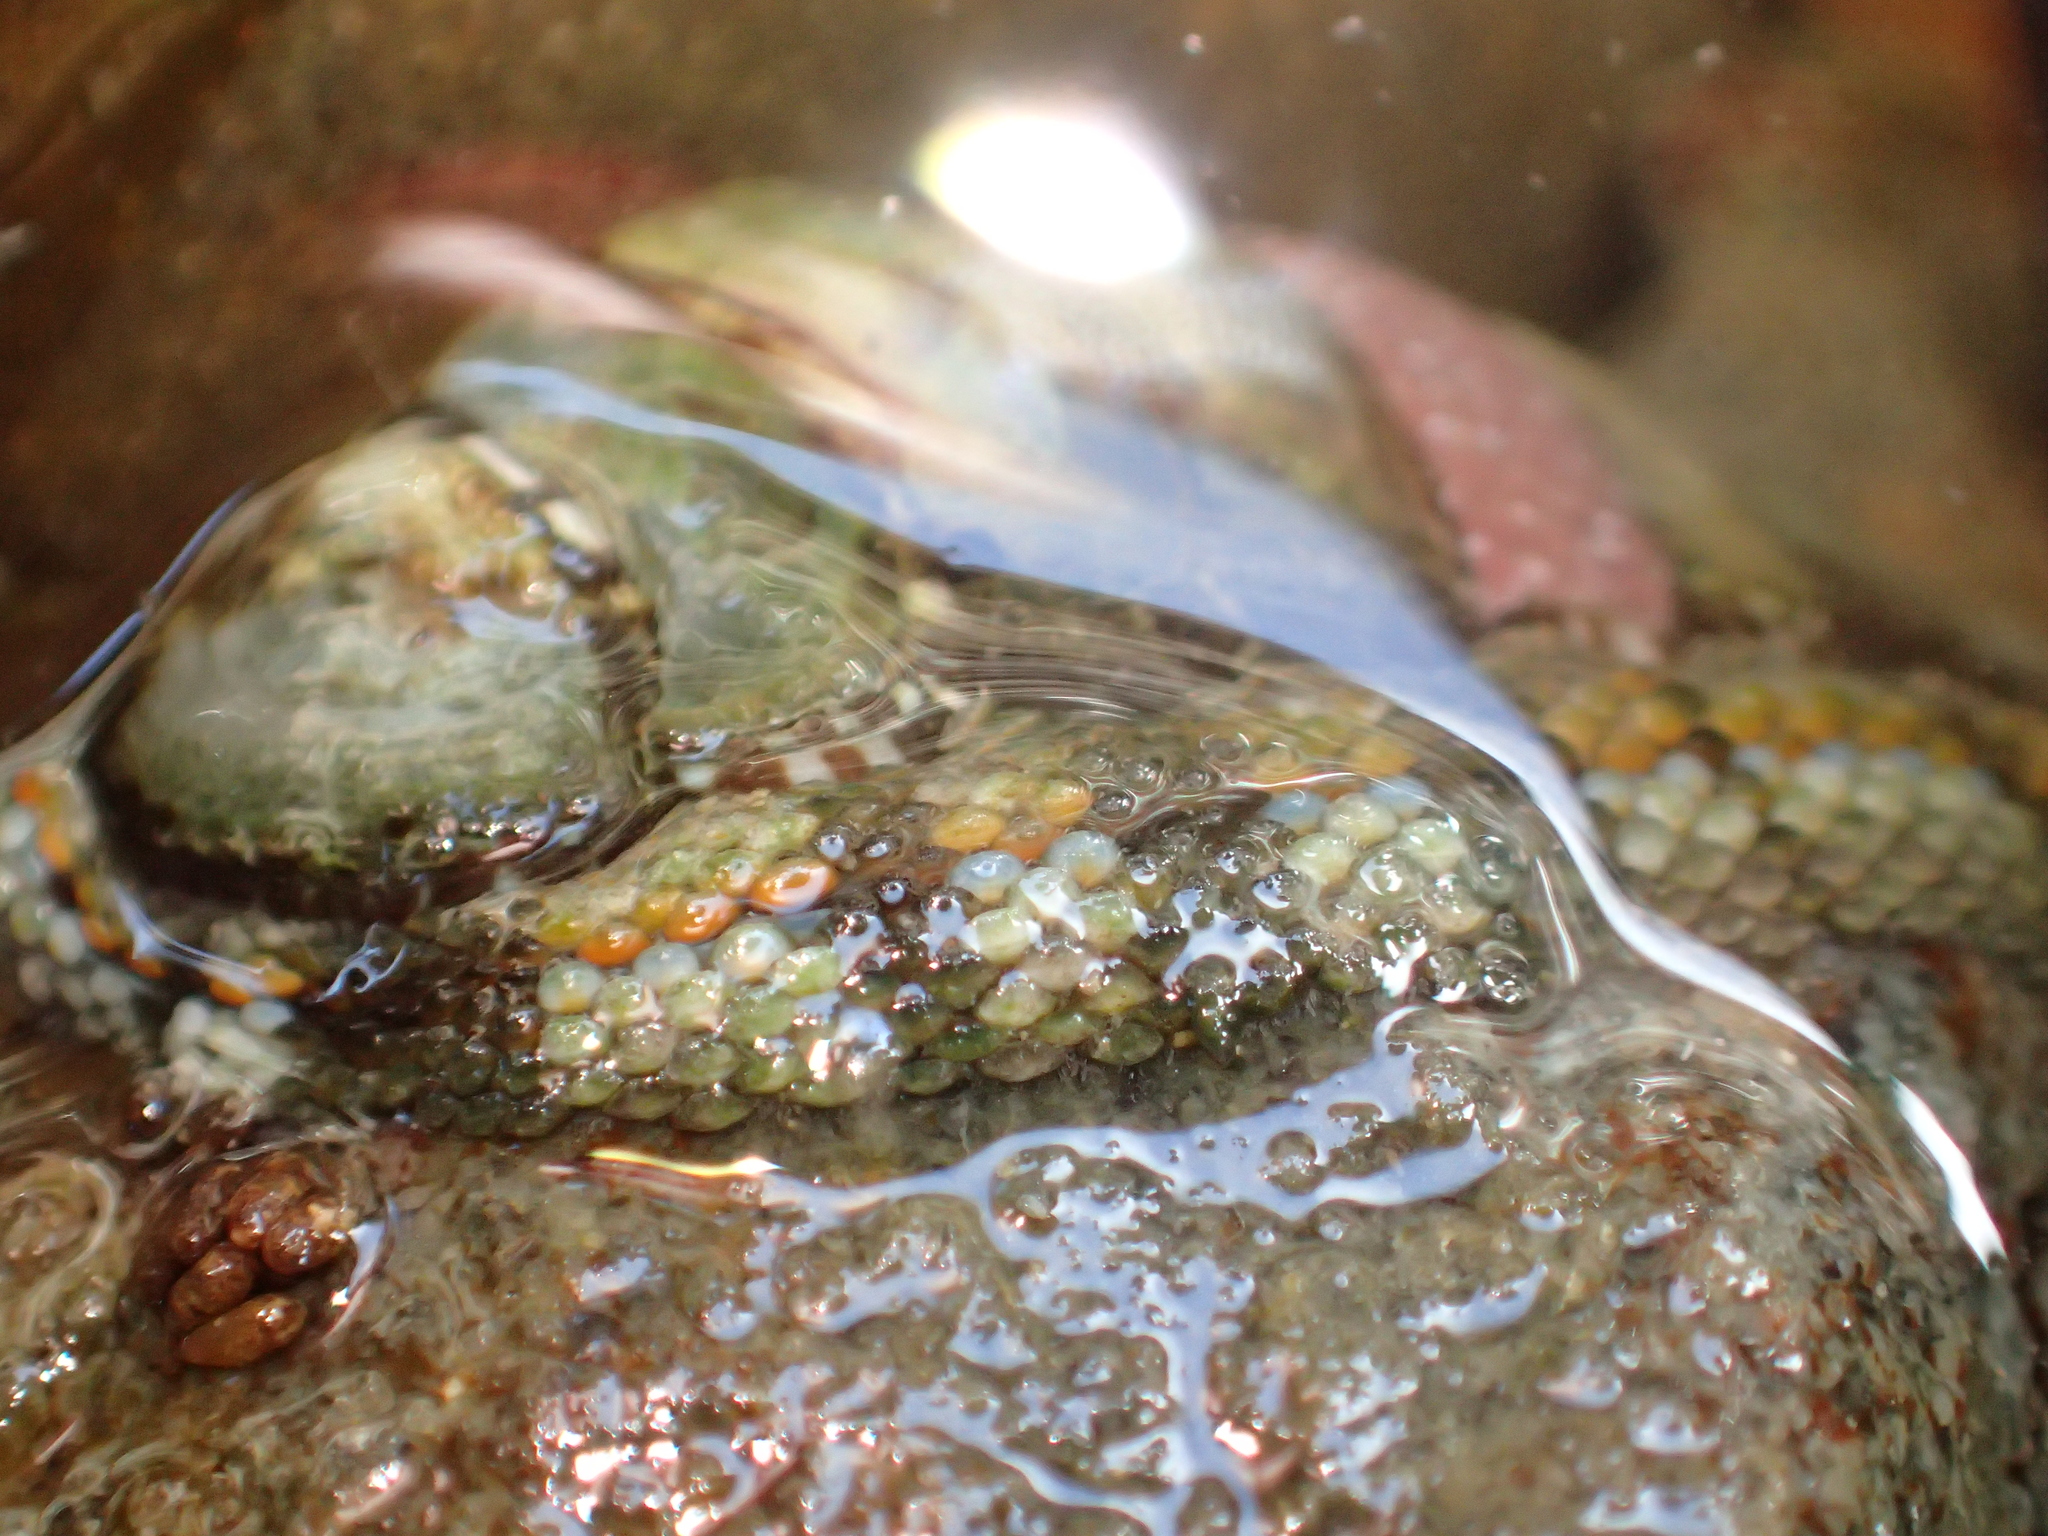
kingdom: Animalia
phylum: Mollusca
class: Polyplacophora
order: Chitonida
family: Chitonidae
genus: Sypharochiton
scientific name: Sypharochiton sinclairi
